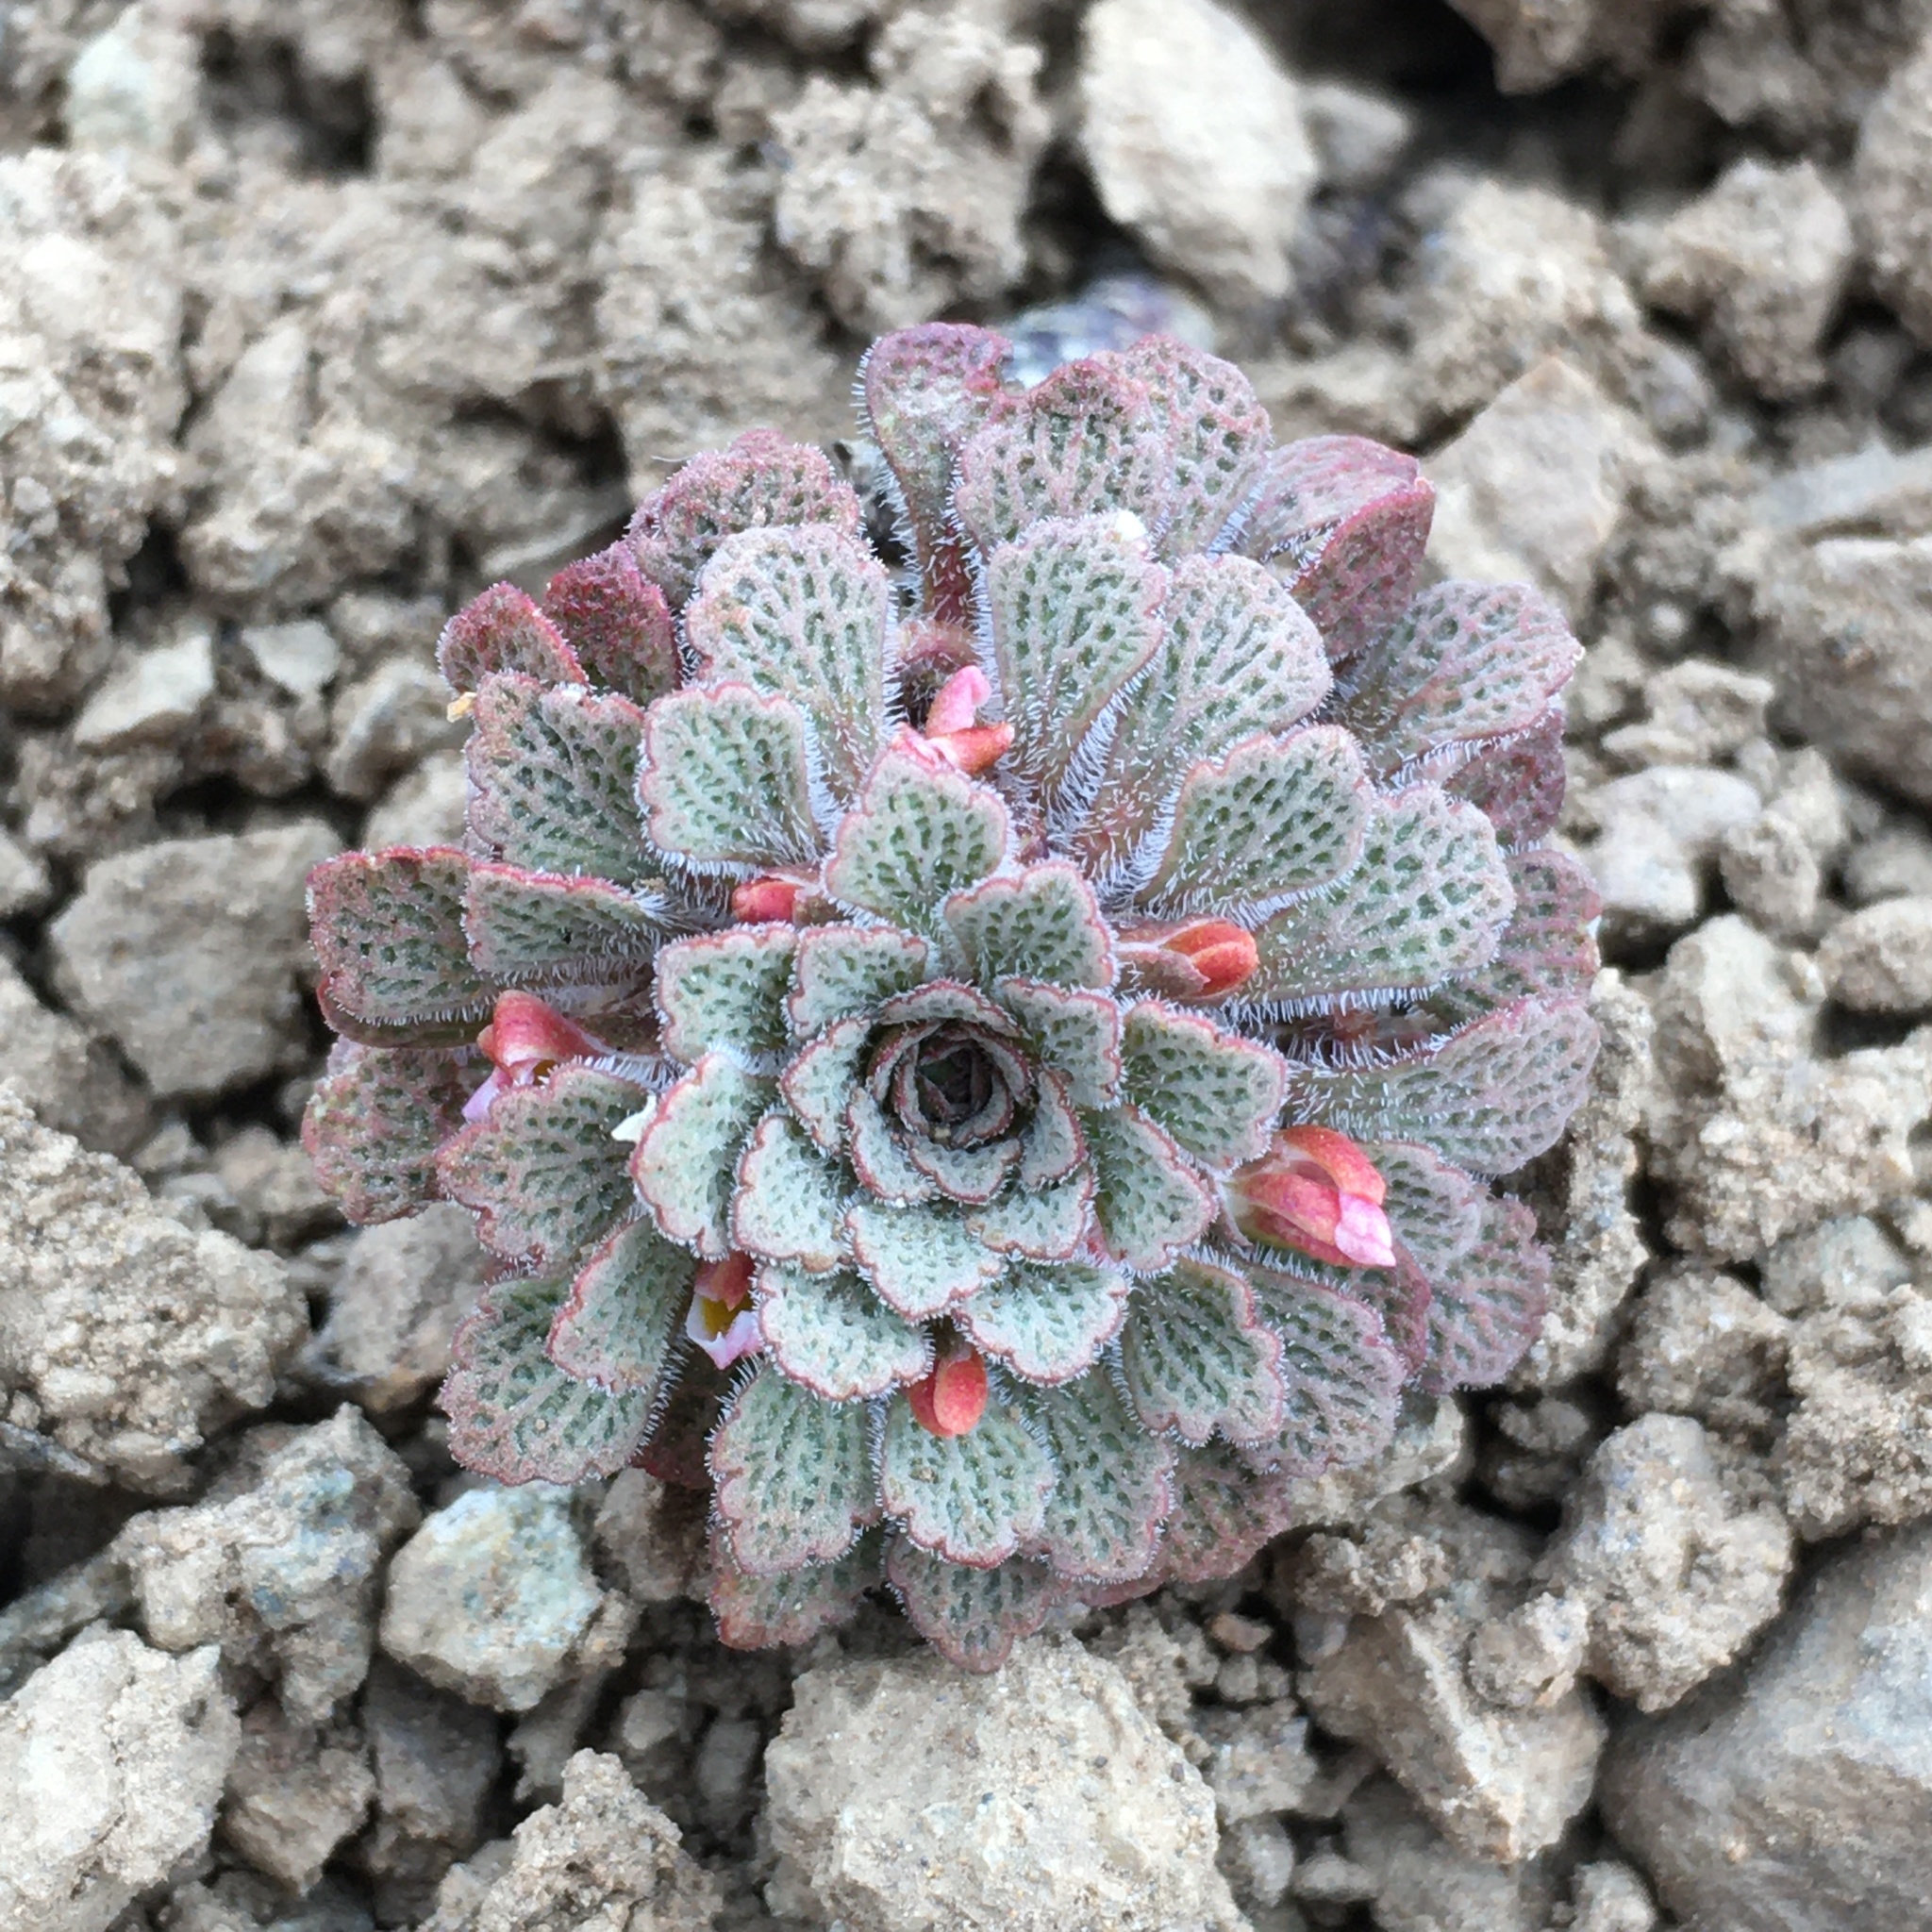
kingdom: Plantae
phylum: Tracheophyta
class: Magnoliopsida
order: Malpighiales
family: Violaceae
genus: Viola
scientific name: Viola
